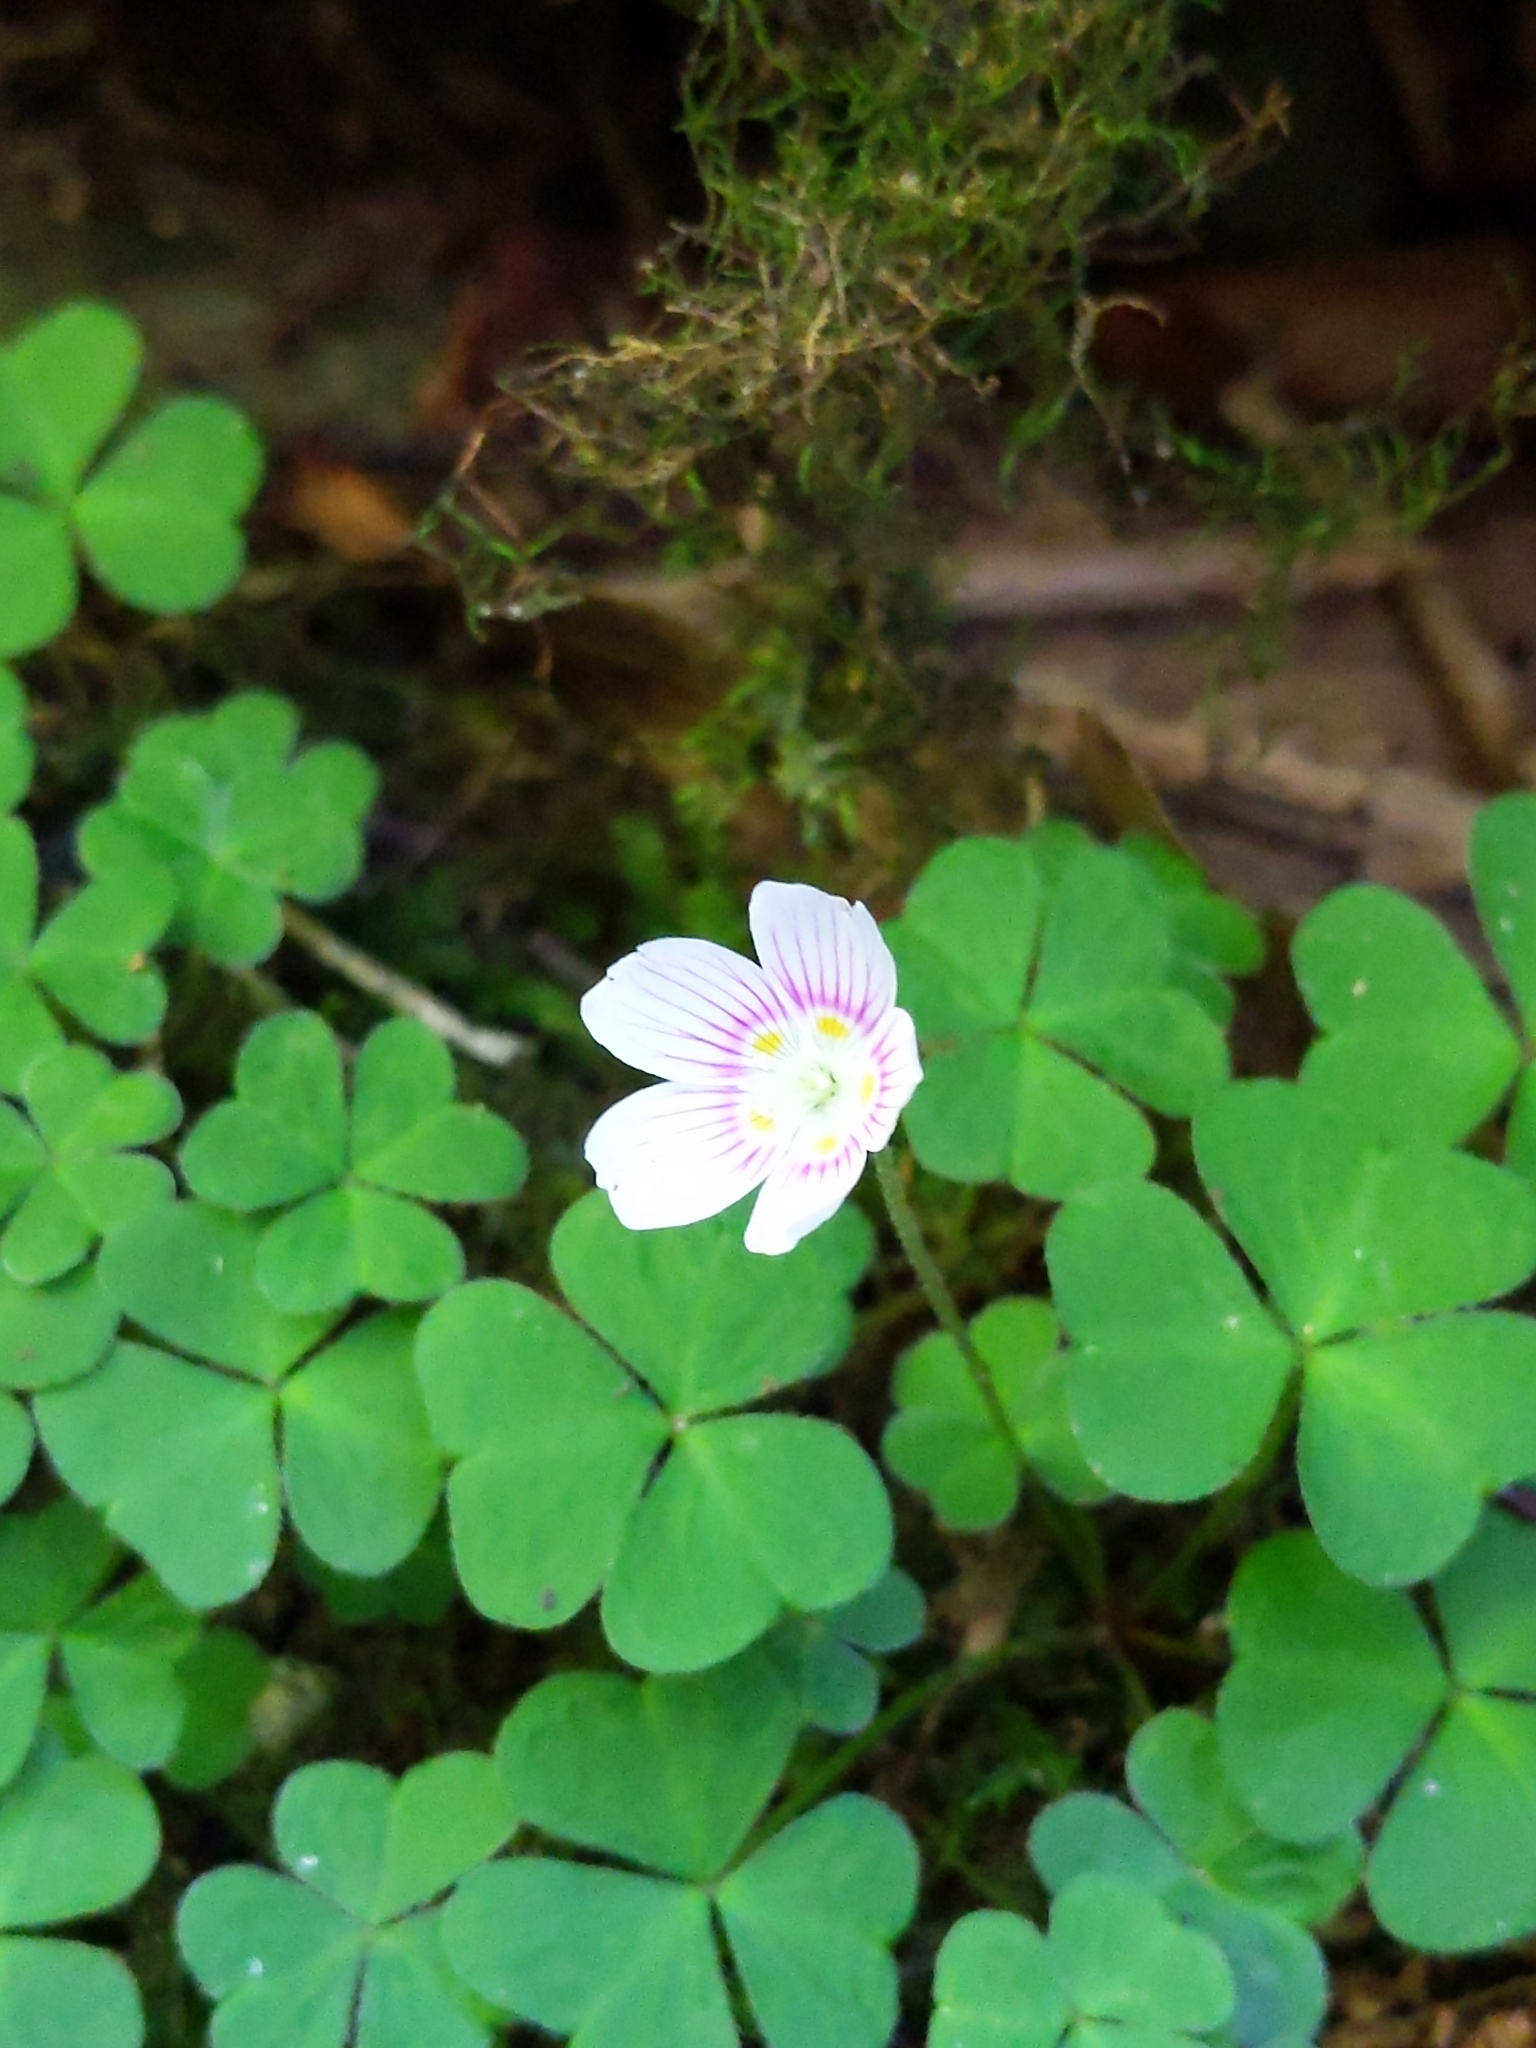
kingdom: Plantae
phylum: Tracheophyta
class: Magnoliopsida
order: Oxalidales
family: Oxalidaceae
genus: Oxalis
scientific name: Oxalis montana
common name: American wood-sorrel
